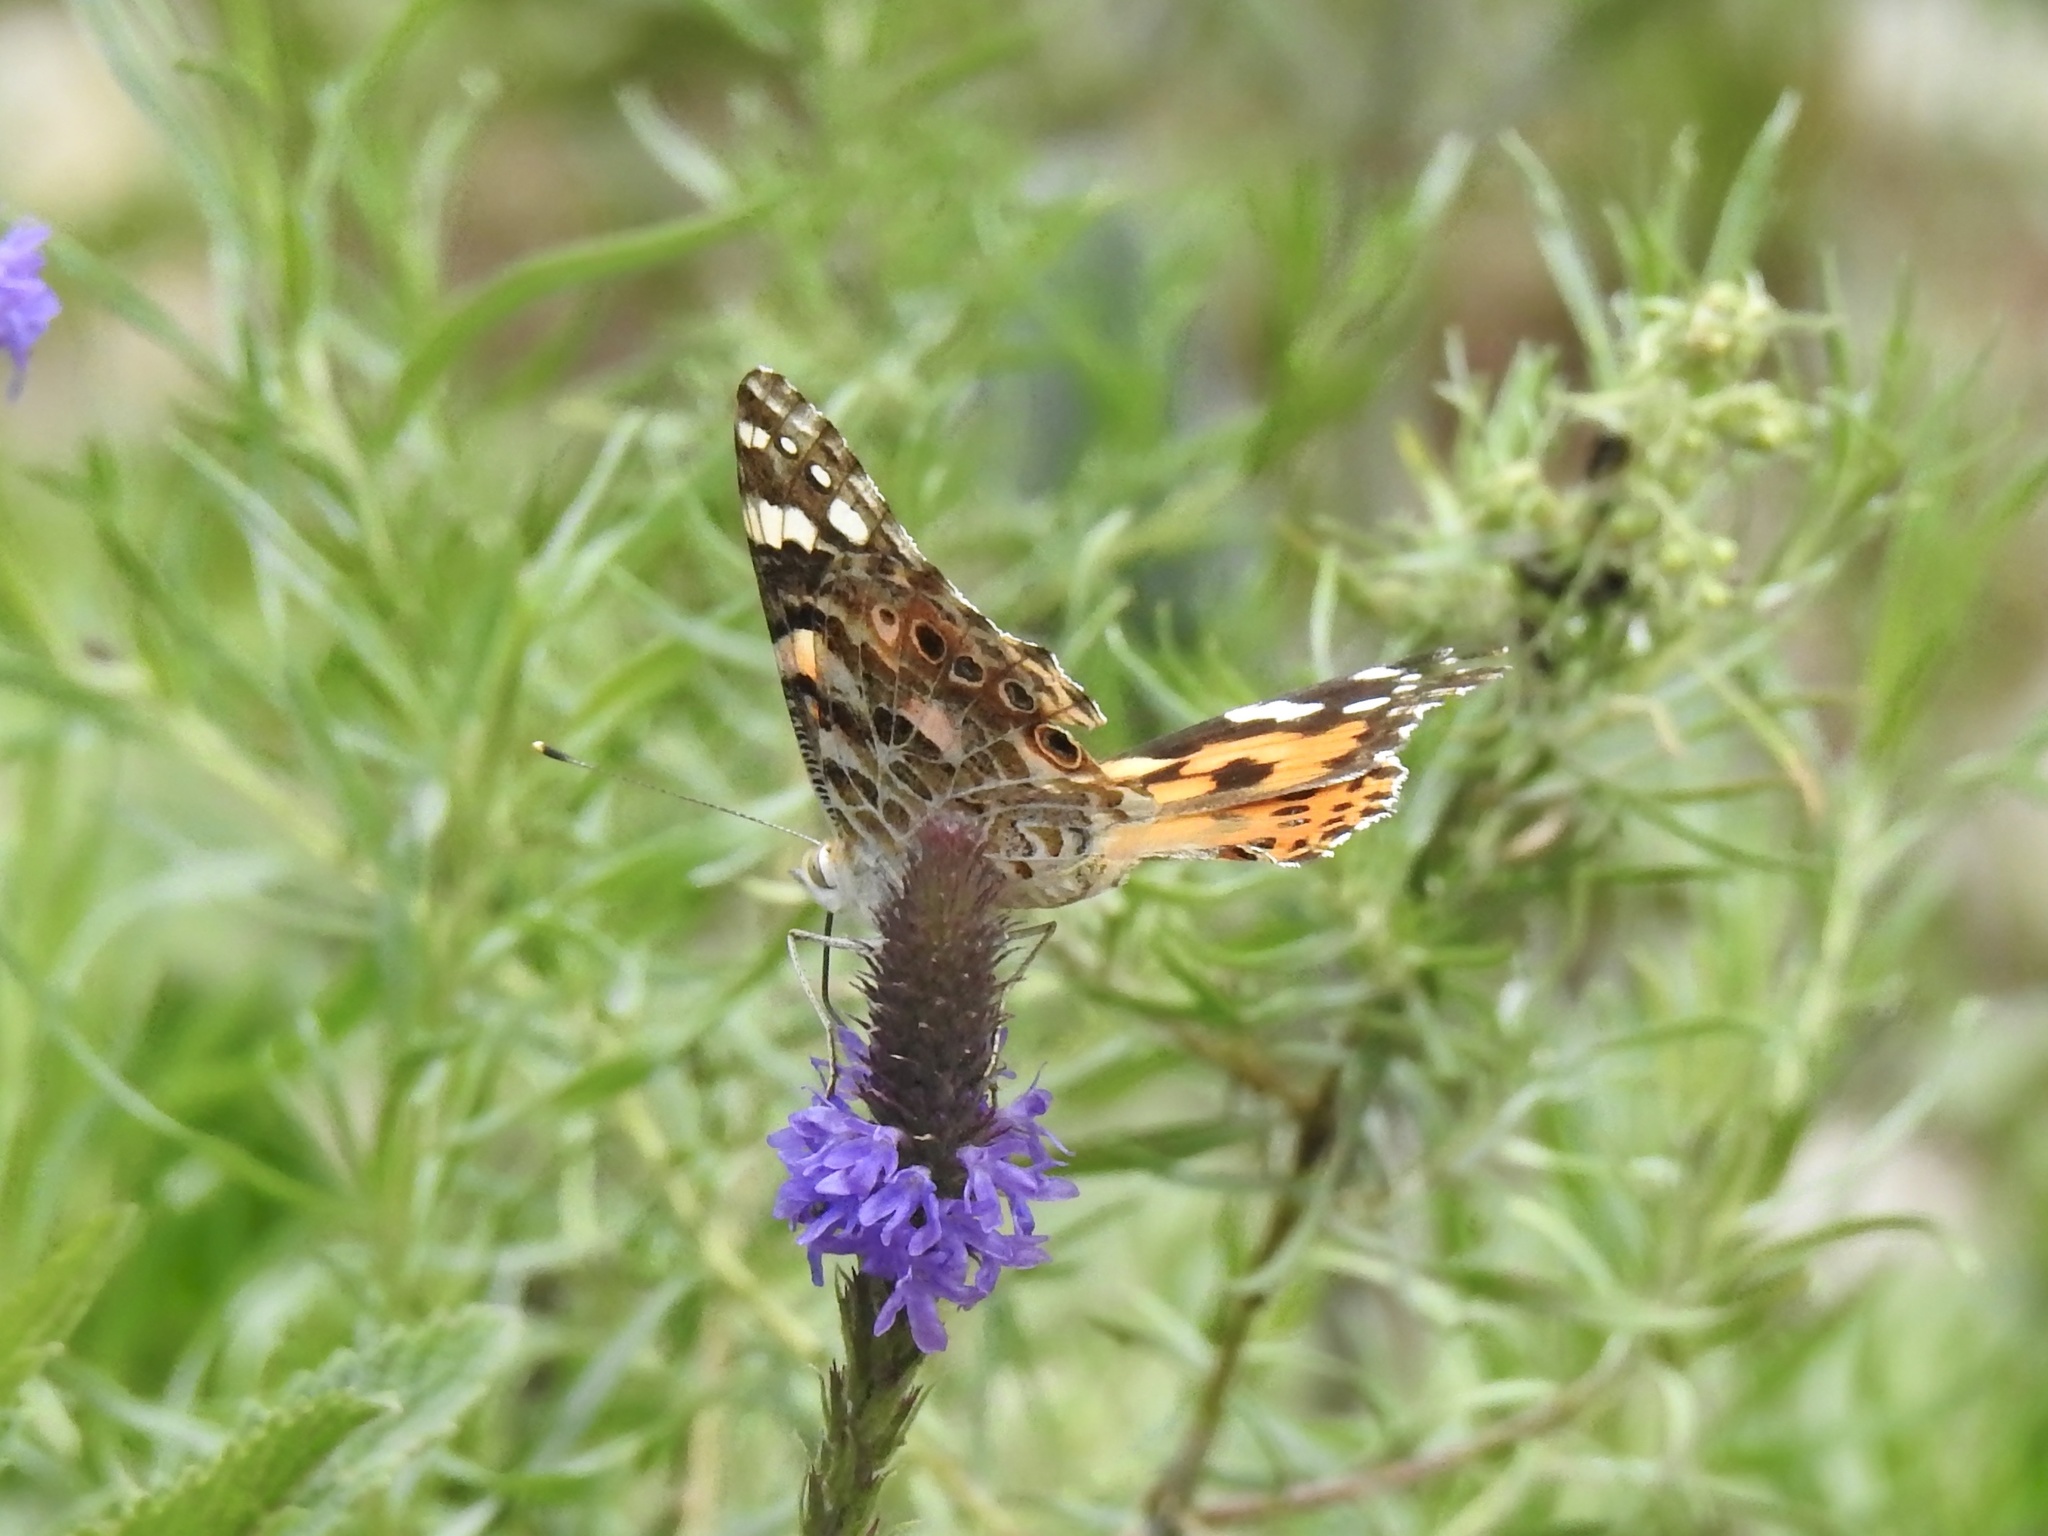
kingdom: Animalia
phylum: Arthropoda
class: Insecta
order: Lepidoptera
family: Nymphalidae
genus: Vanessa
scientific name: Vanessa cardui
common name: Painted lady
